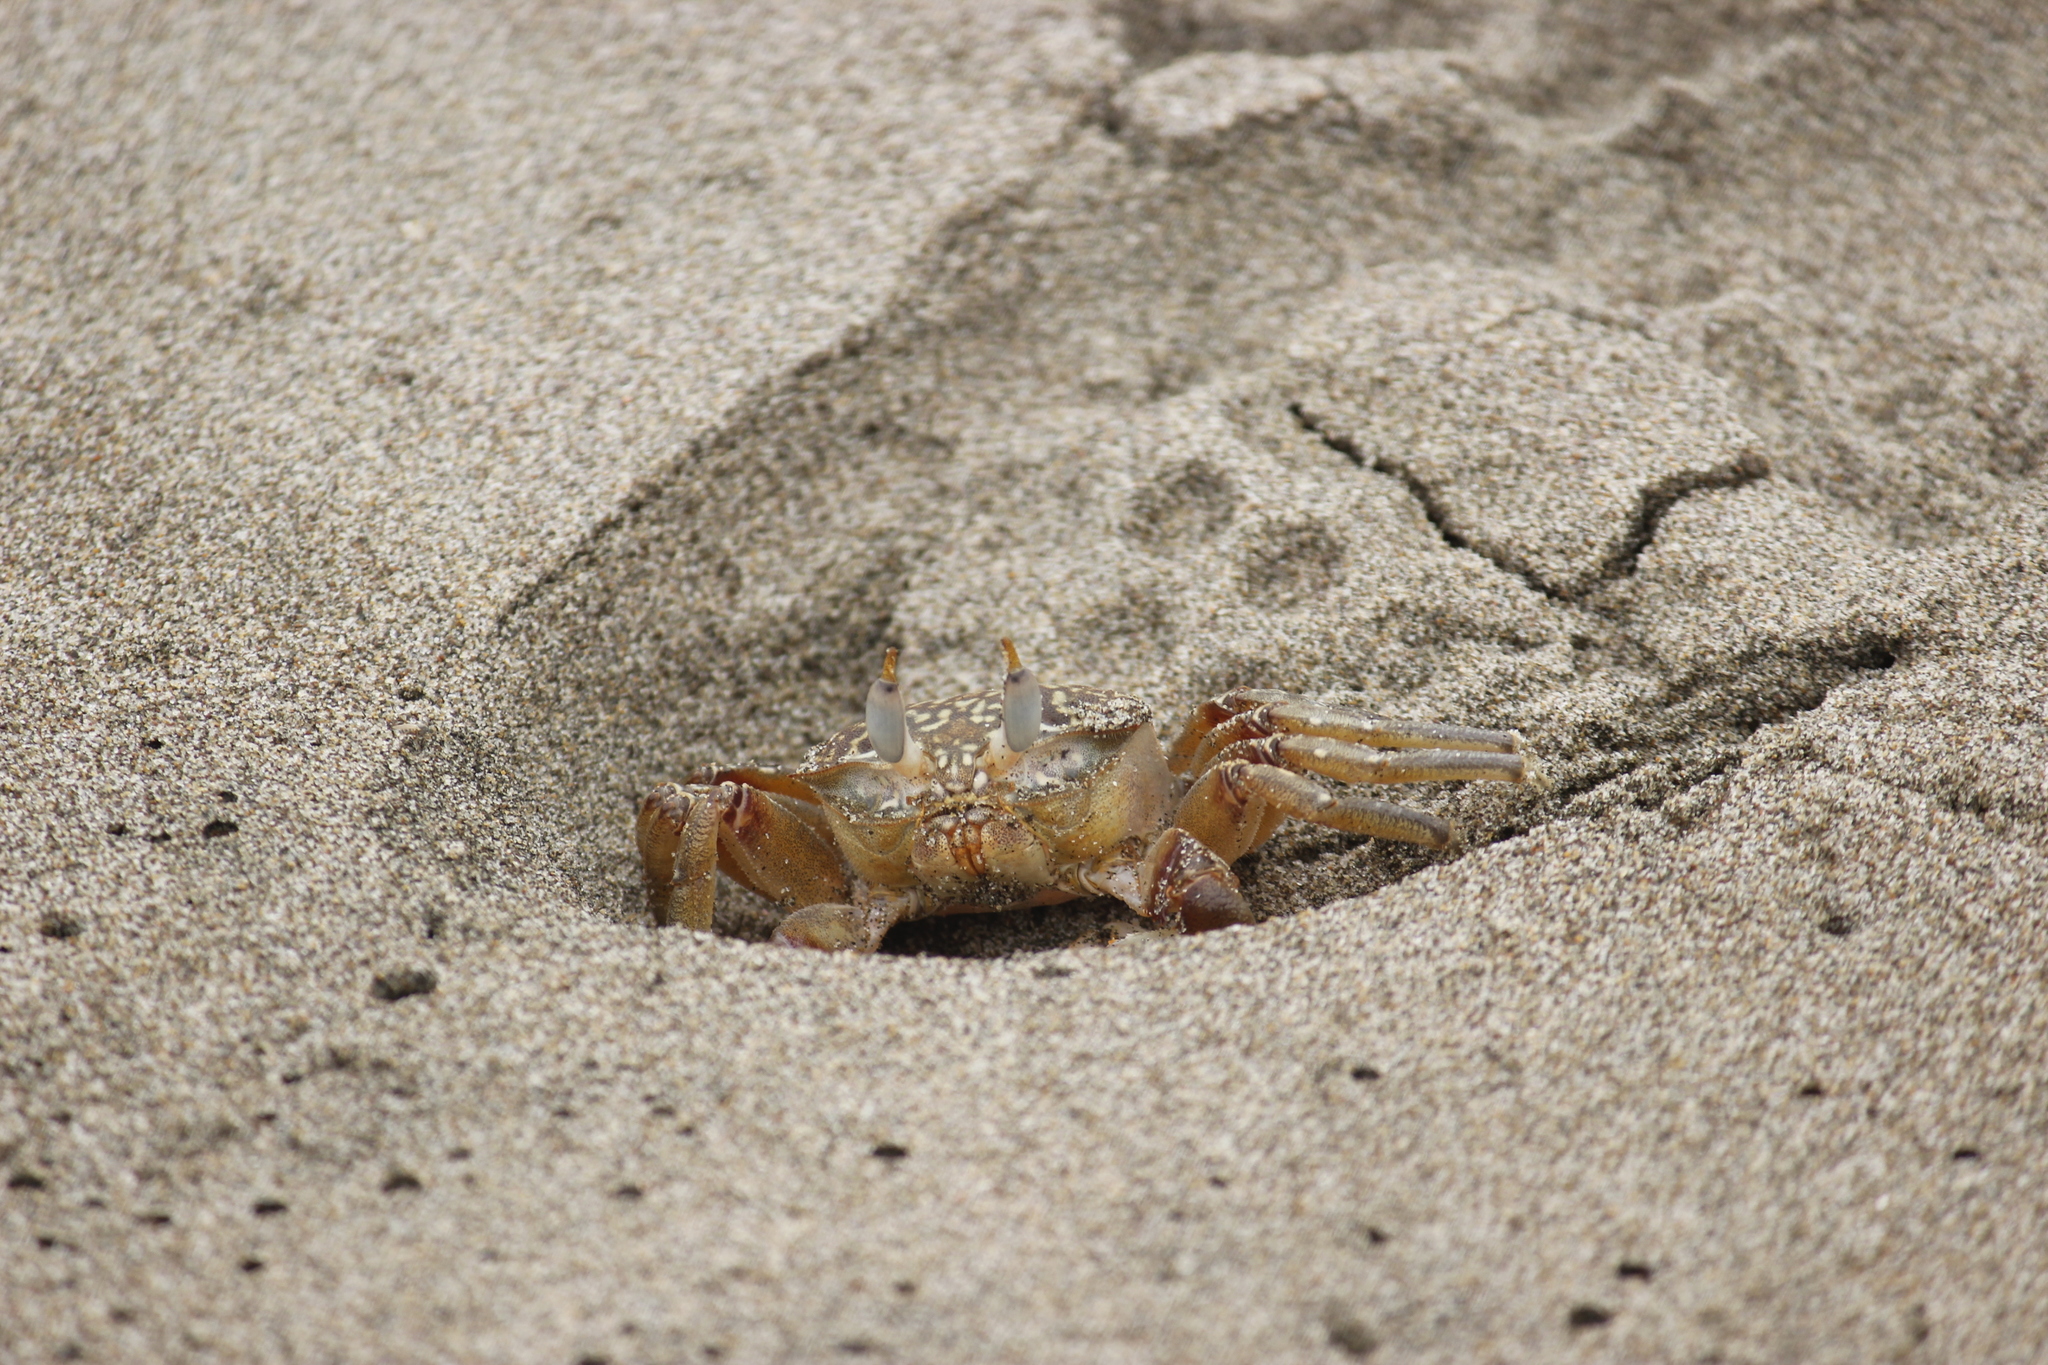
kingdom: Animalia
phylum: Arthropoda
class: Malacostraca
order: Decapoda
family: Ocypodidae
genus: Ocypode
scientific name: Ocypode gaudichaudii
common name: Pacific ghost crab
